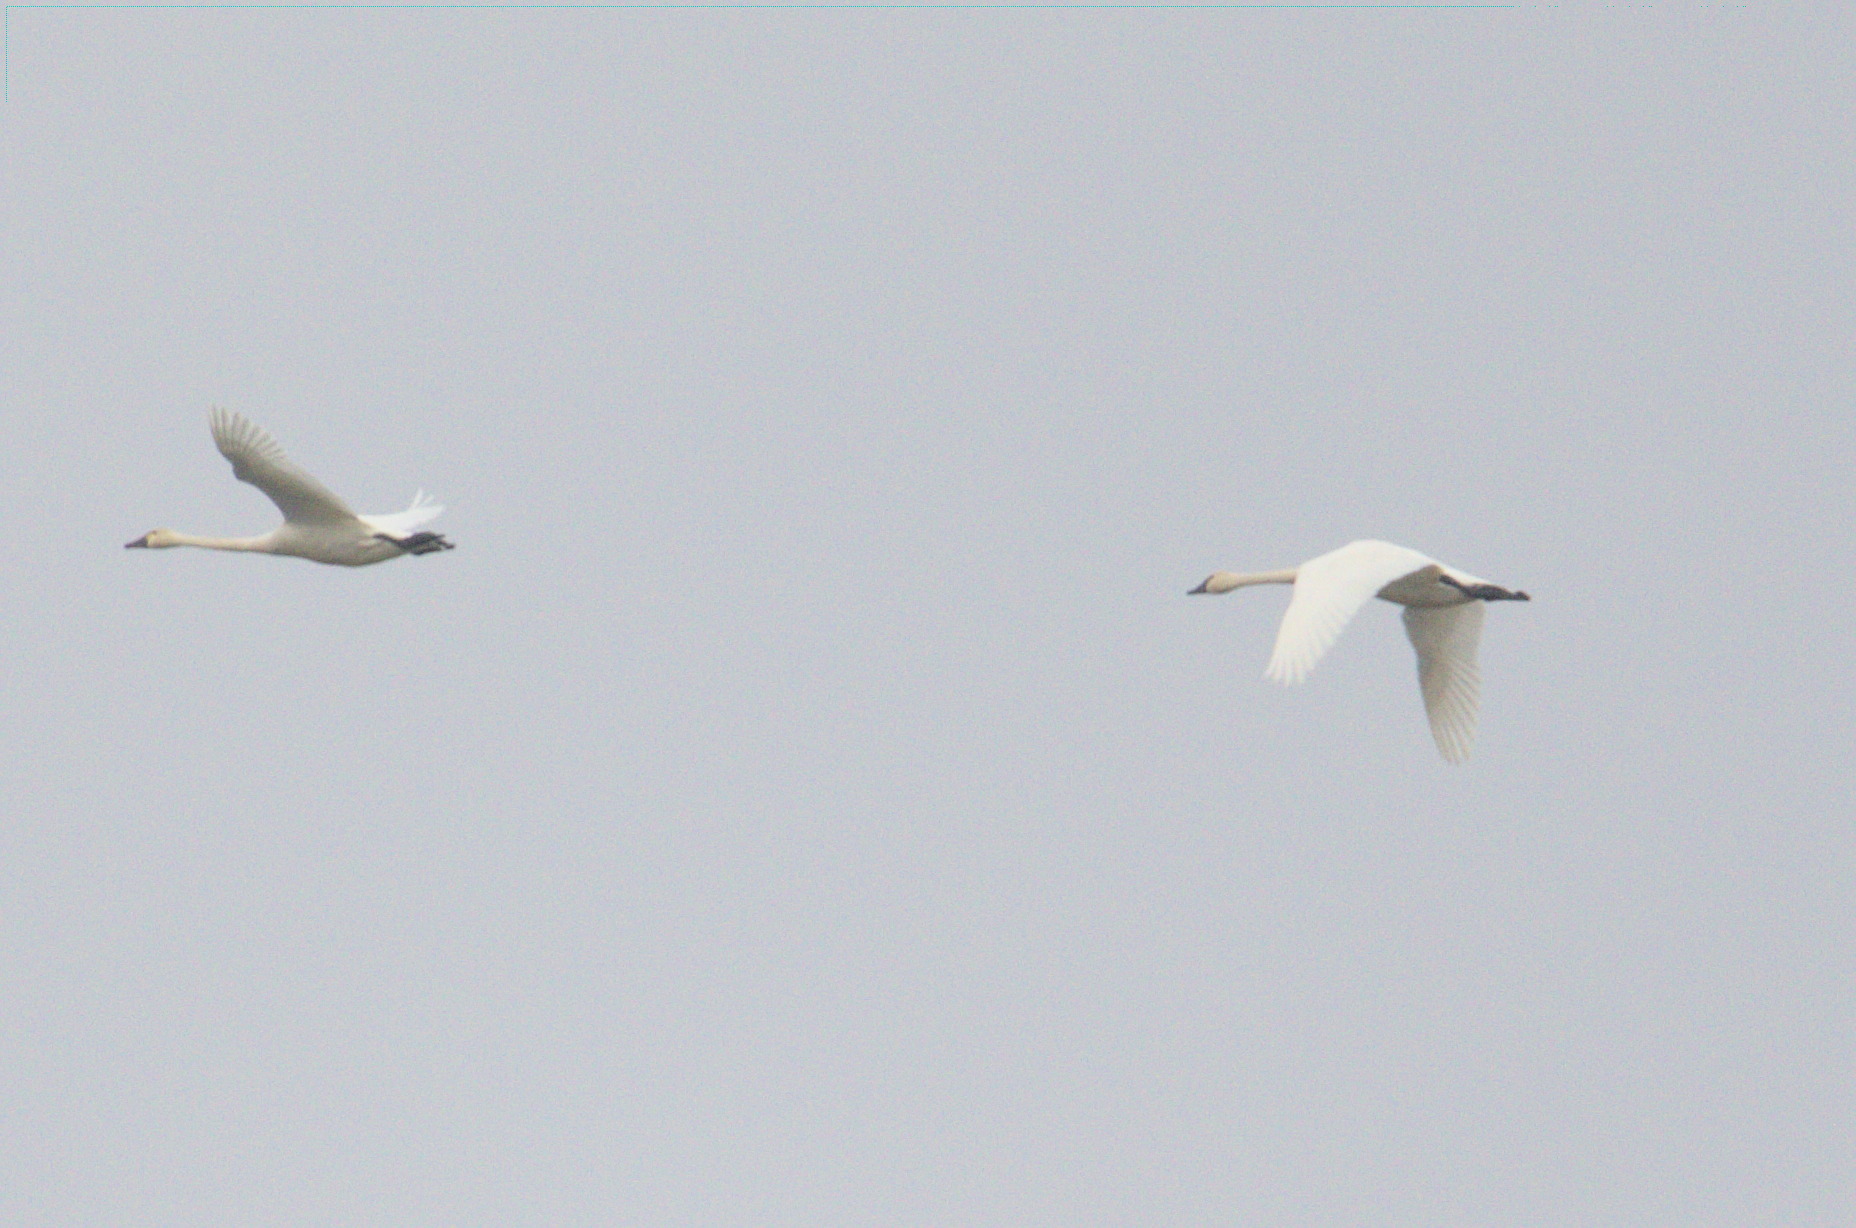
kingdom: Animalia
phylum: Chordata
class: Aves
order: Anseriformes
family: Anatidae
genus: Cygnus
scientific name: Cygnus columbianus
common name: Tundra swan
